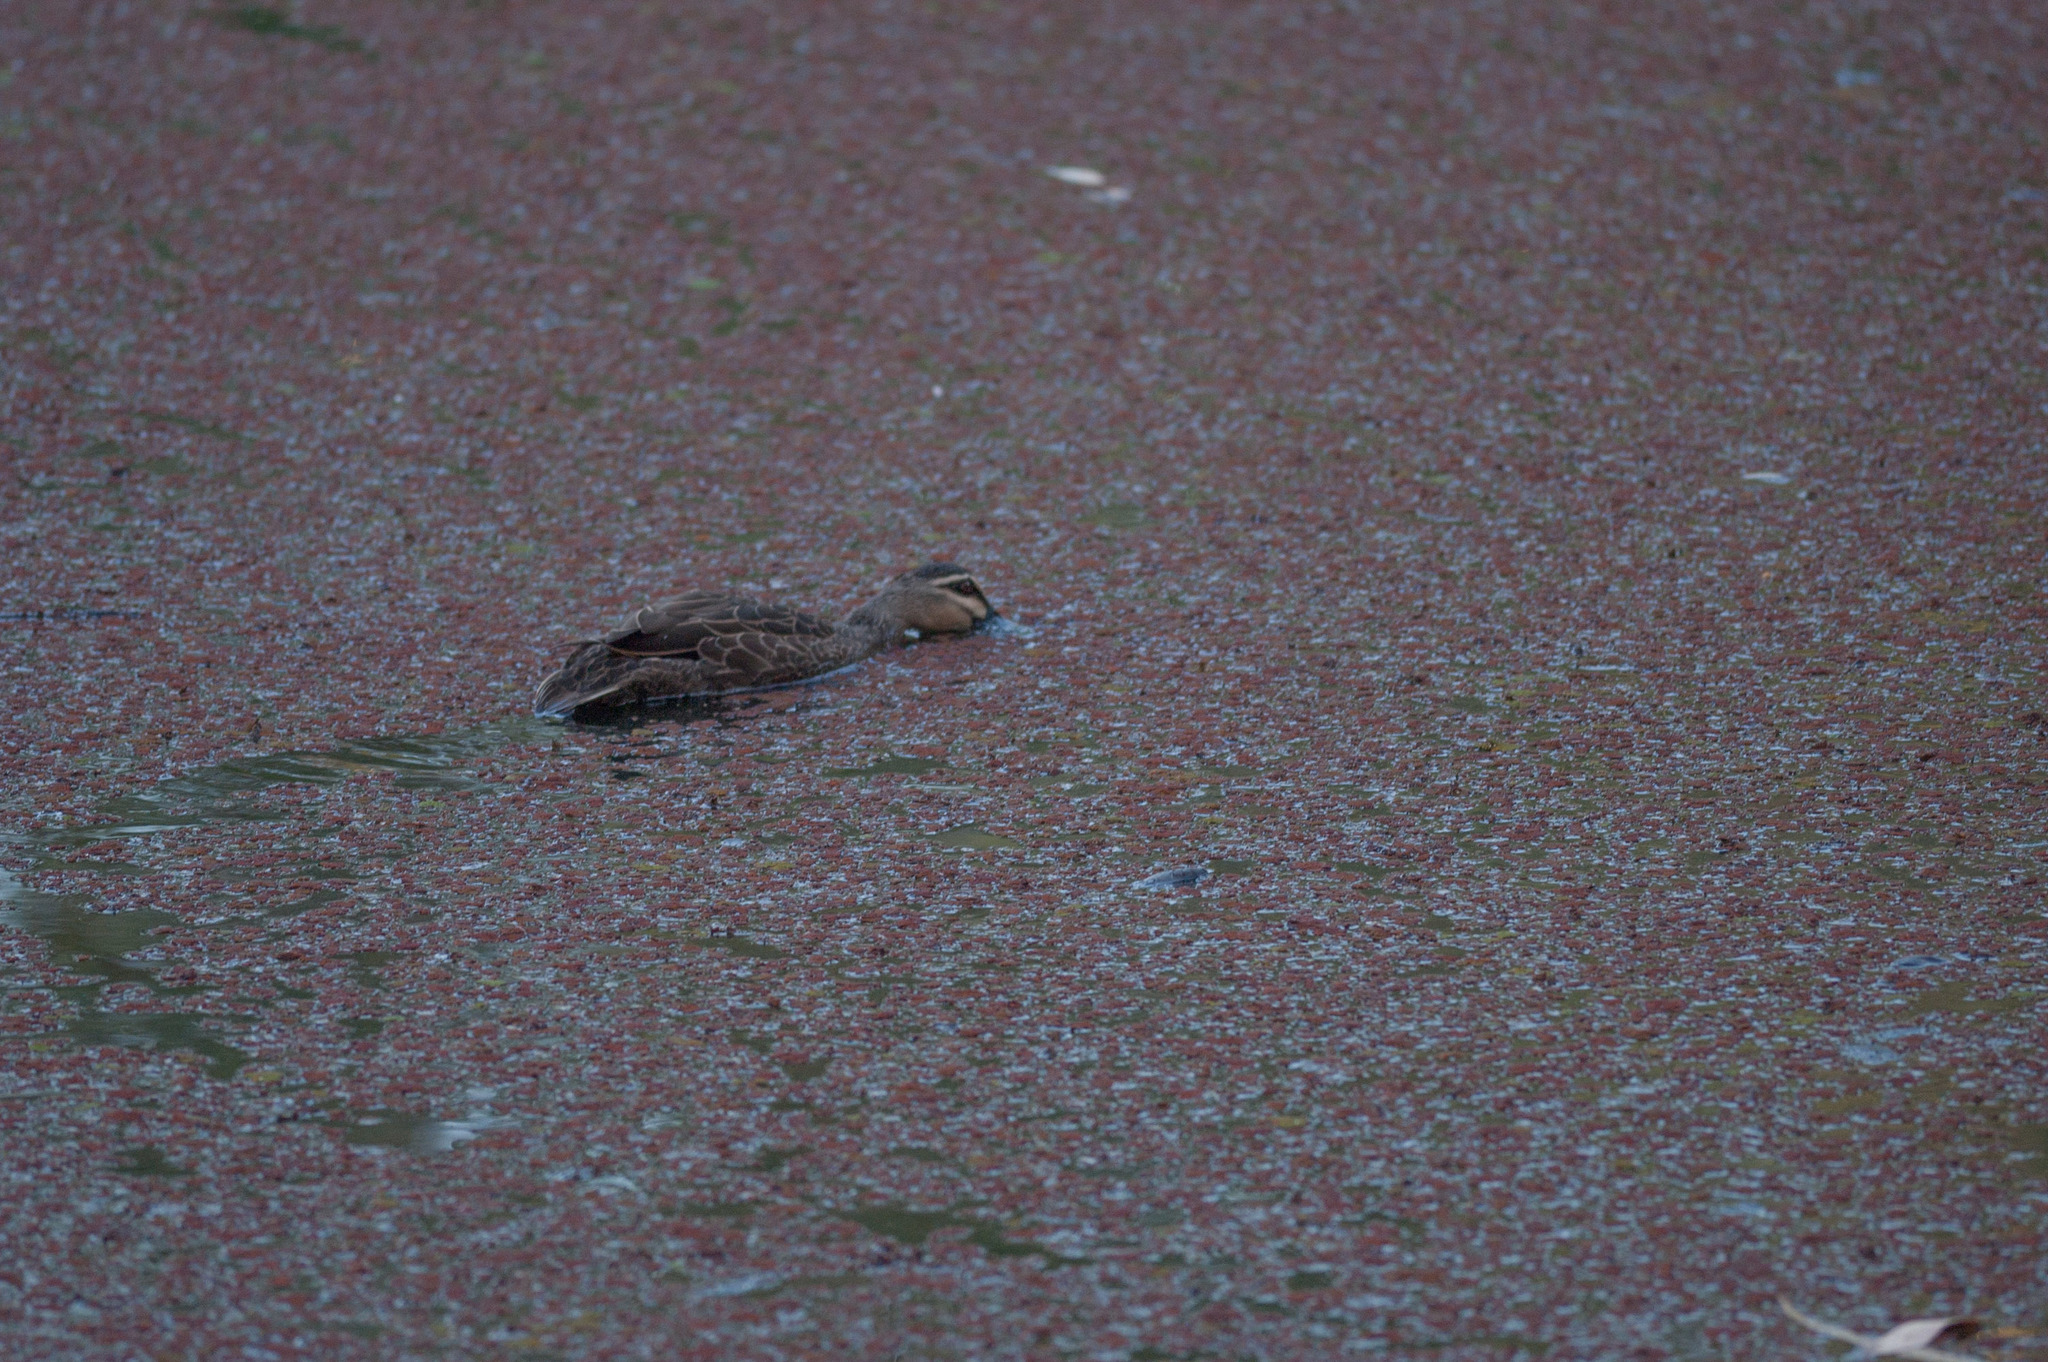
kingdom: Animalia
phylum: Chordata
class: Aves
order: Anseriformes
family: Anatidae
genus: Anas
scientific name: Anas superciliosa
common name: Pacific black duck
